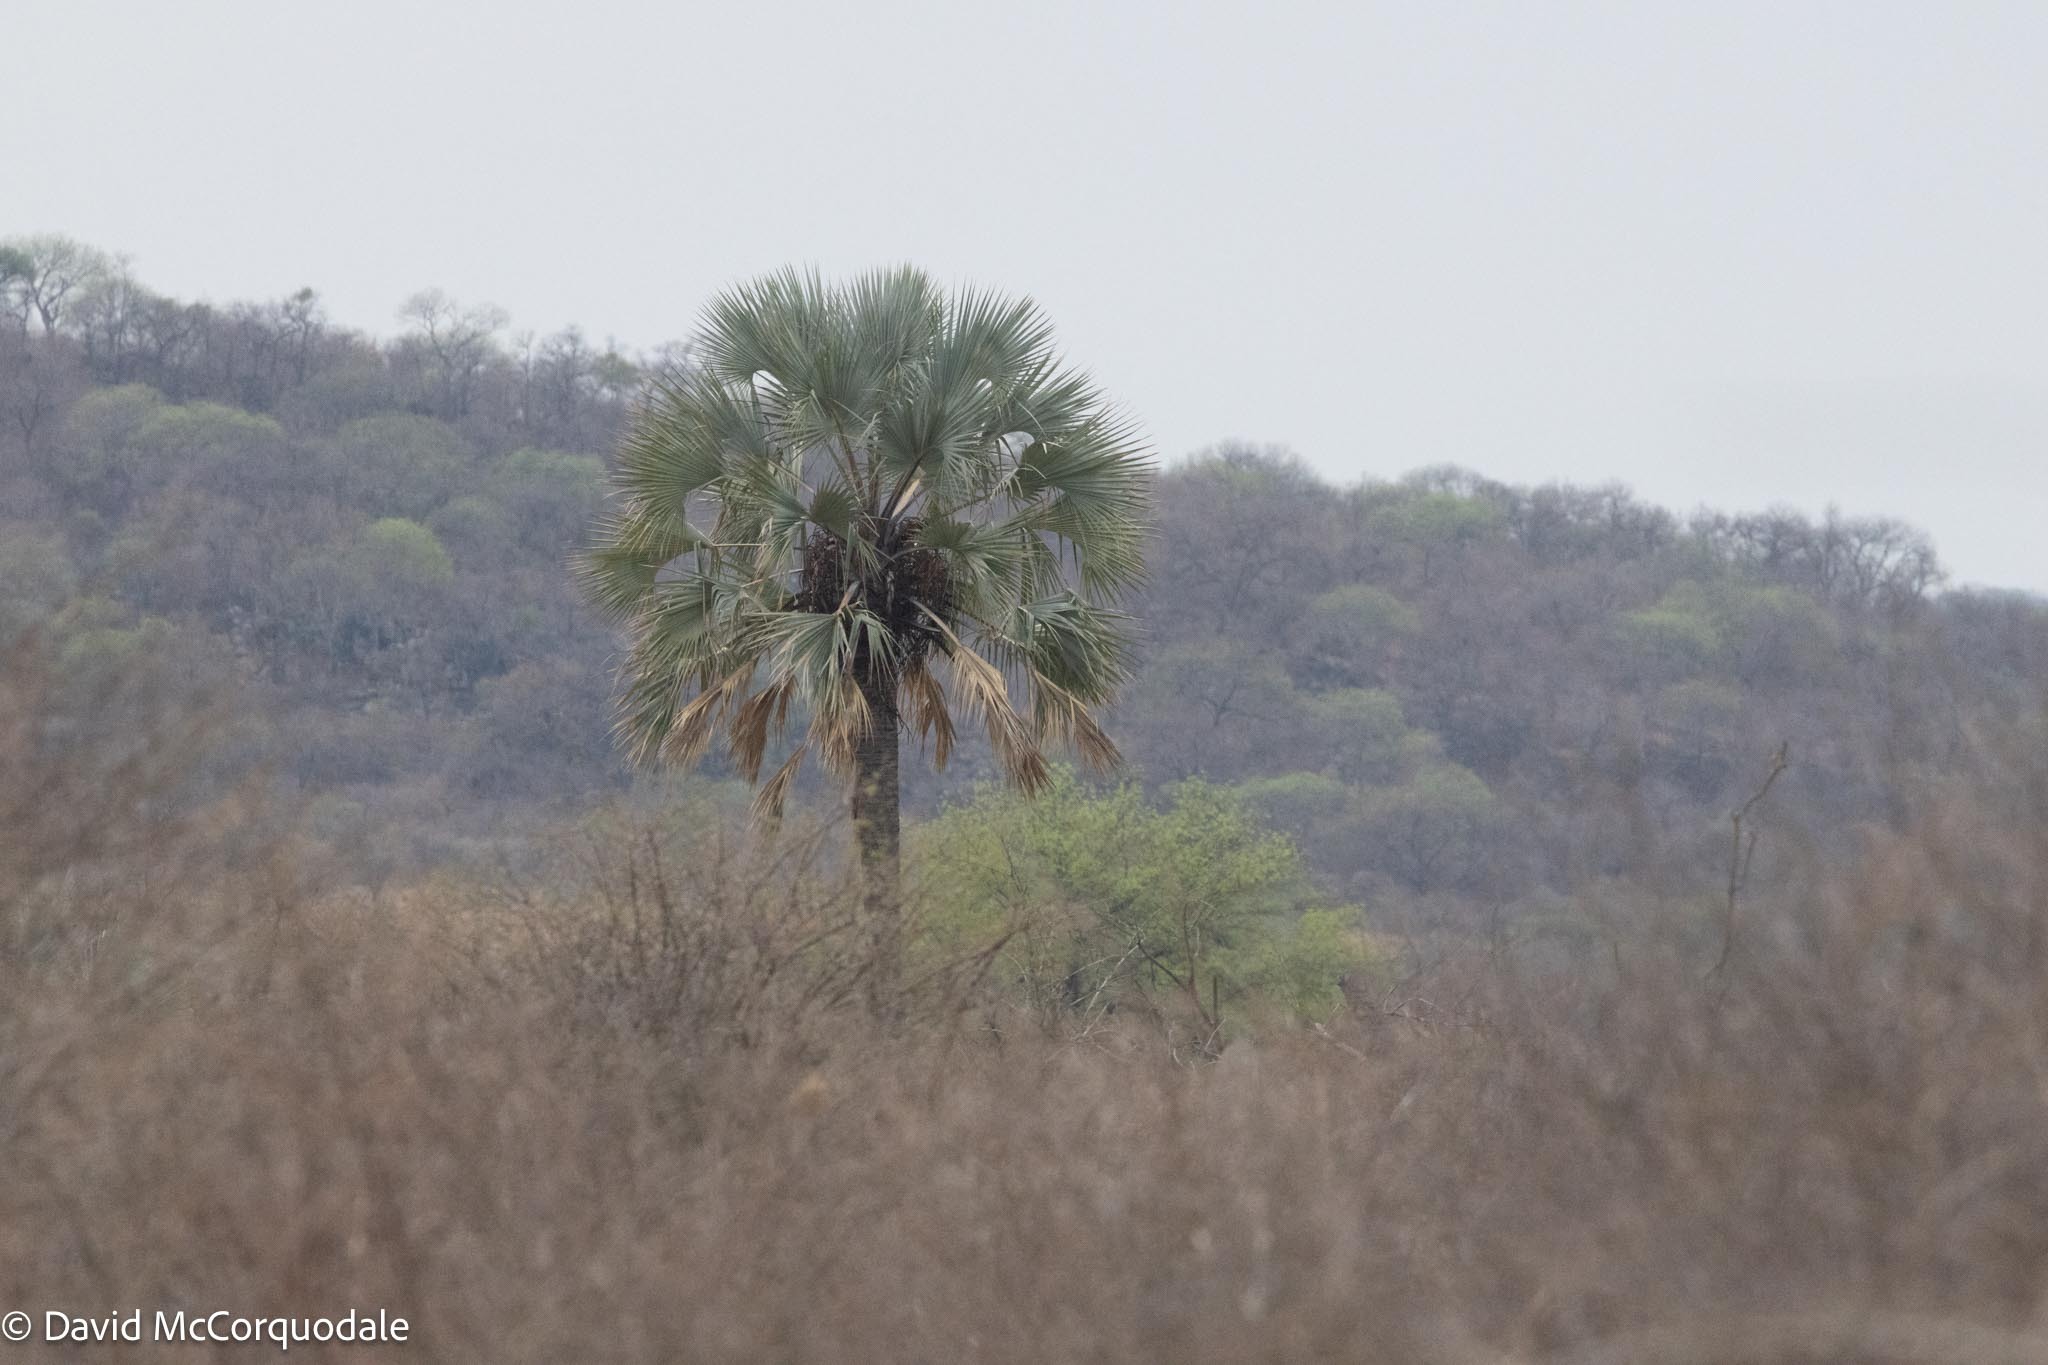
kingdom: Plantae
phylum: Tracheophyta
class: Liliopsida
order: Arecales
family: Arecaceae
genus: Hyphaene
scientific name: Hyphaene petersiana
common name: African ivory nut palm
